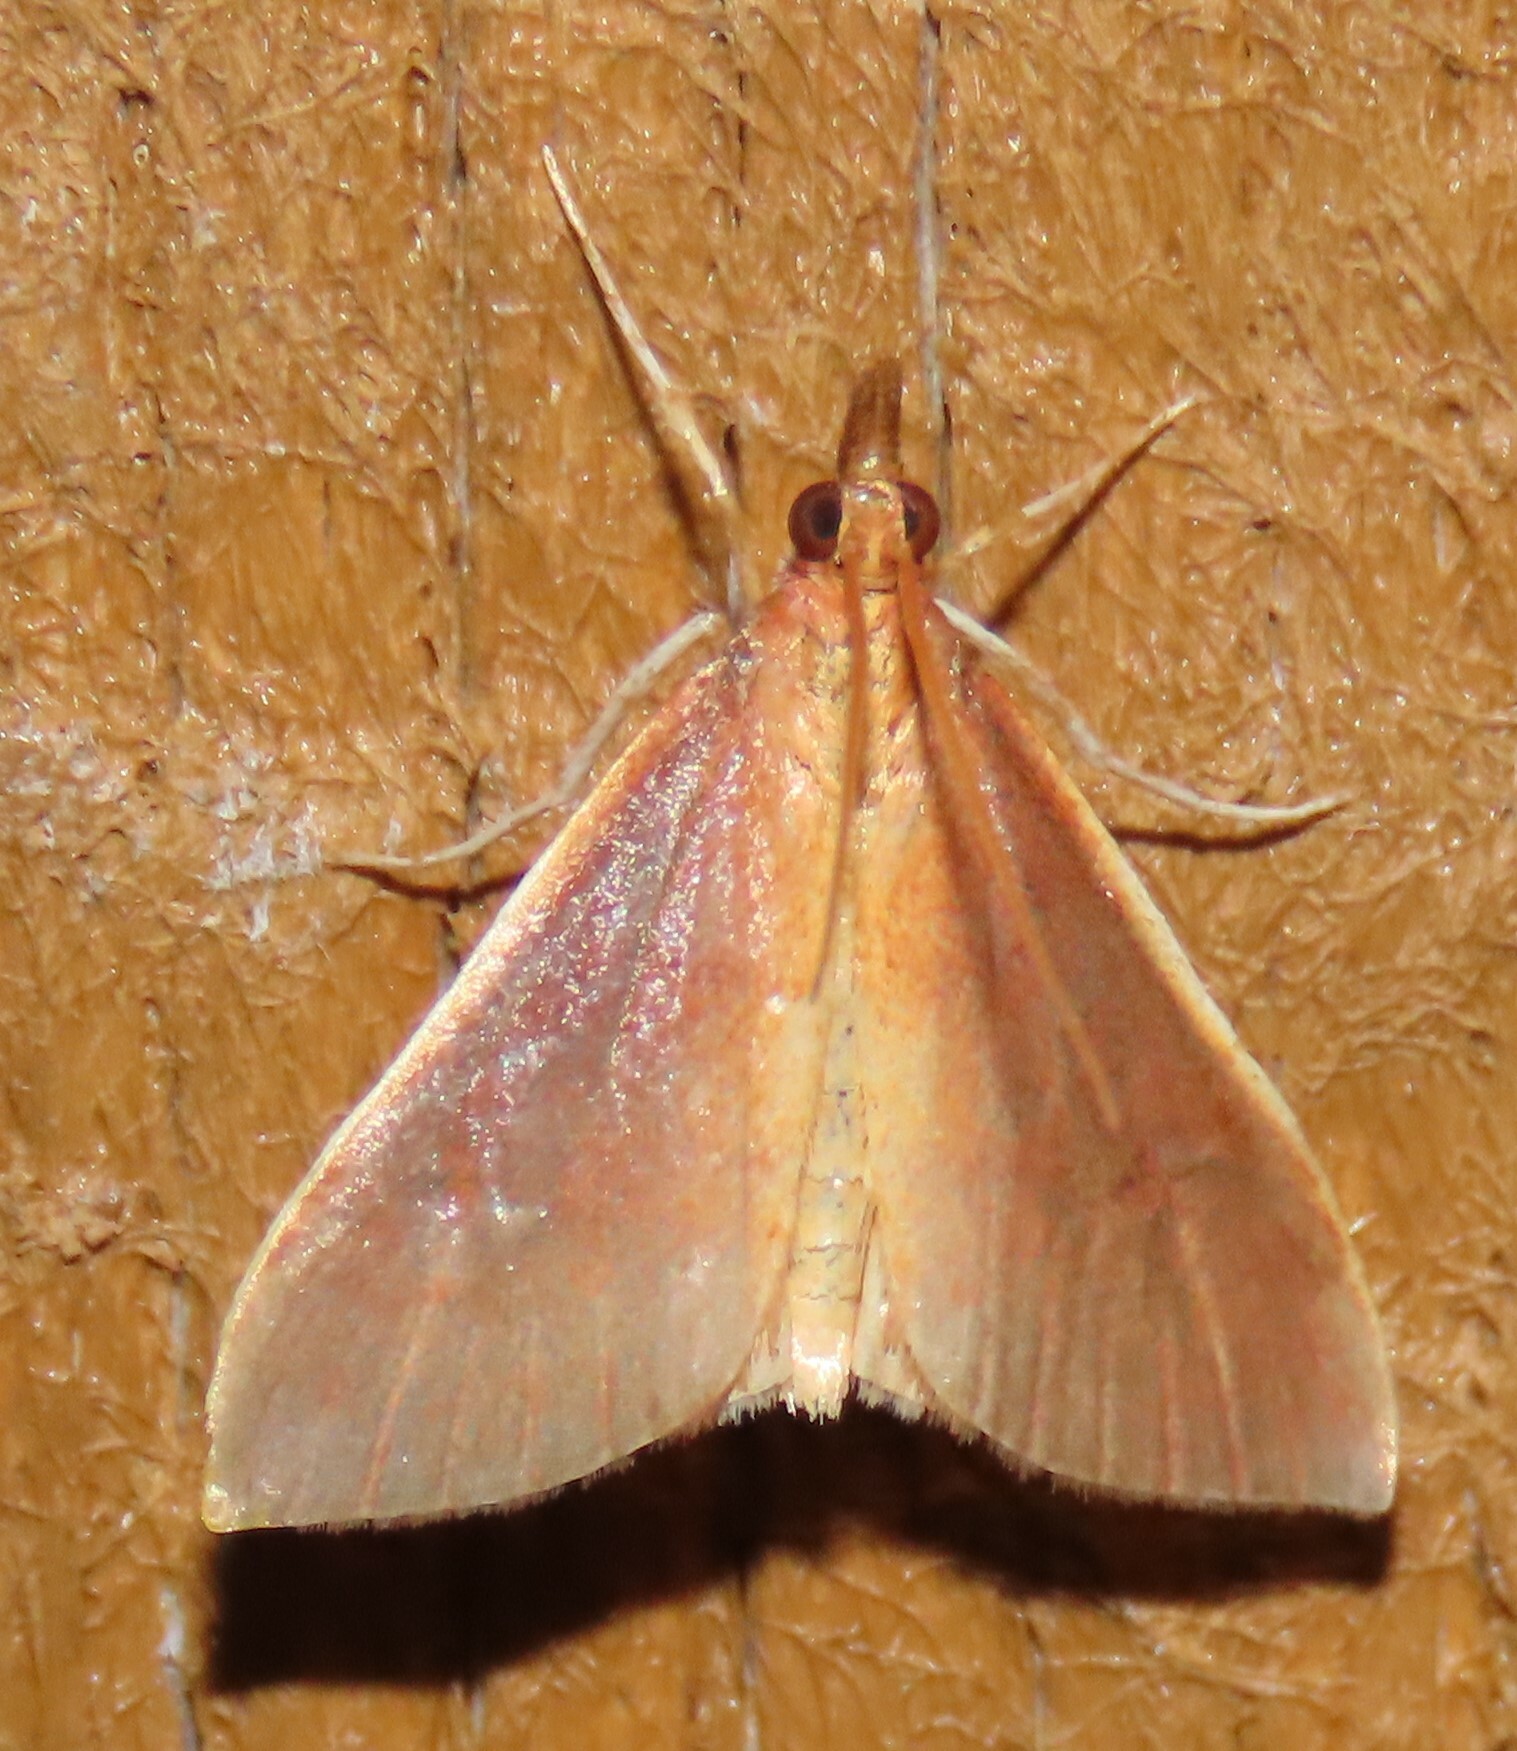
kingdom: Animalia
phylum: Arthropoda
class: Insecta
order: Lepidoptera
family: Crambidae
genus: Udea
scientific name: Udea daiclesalis
